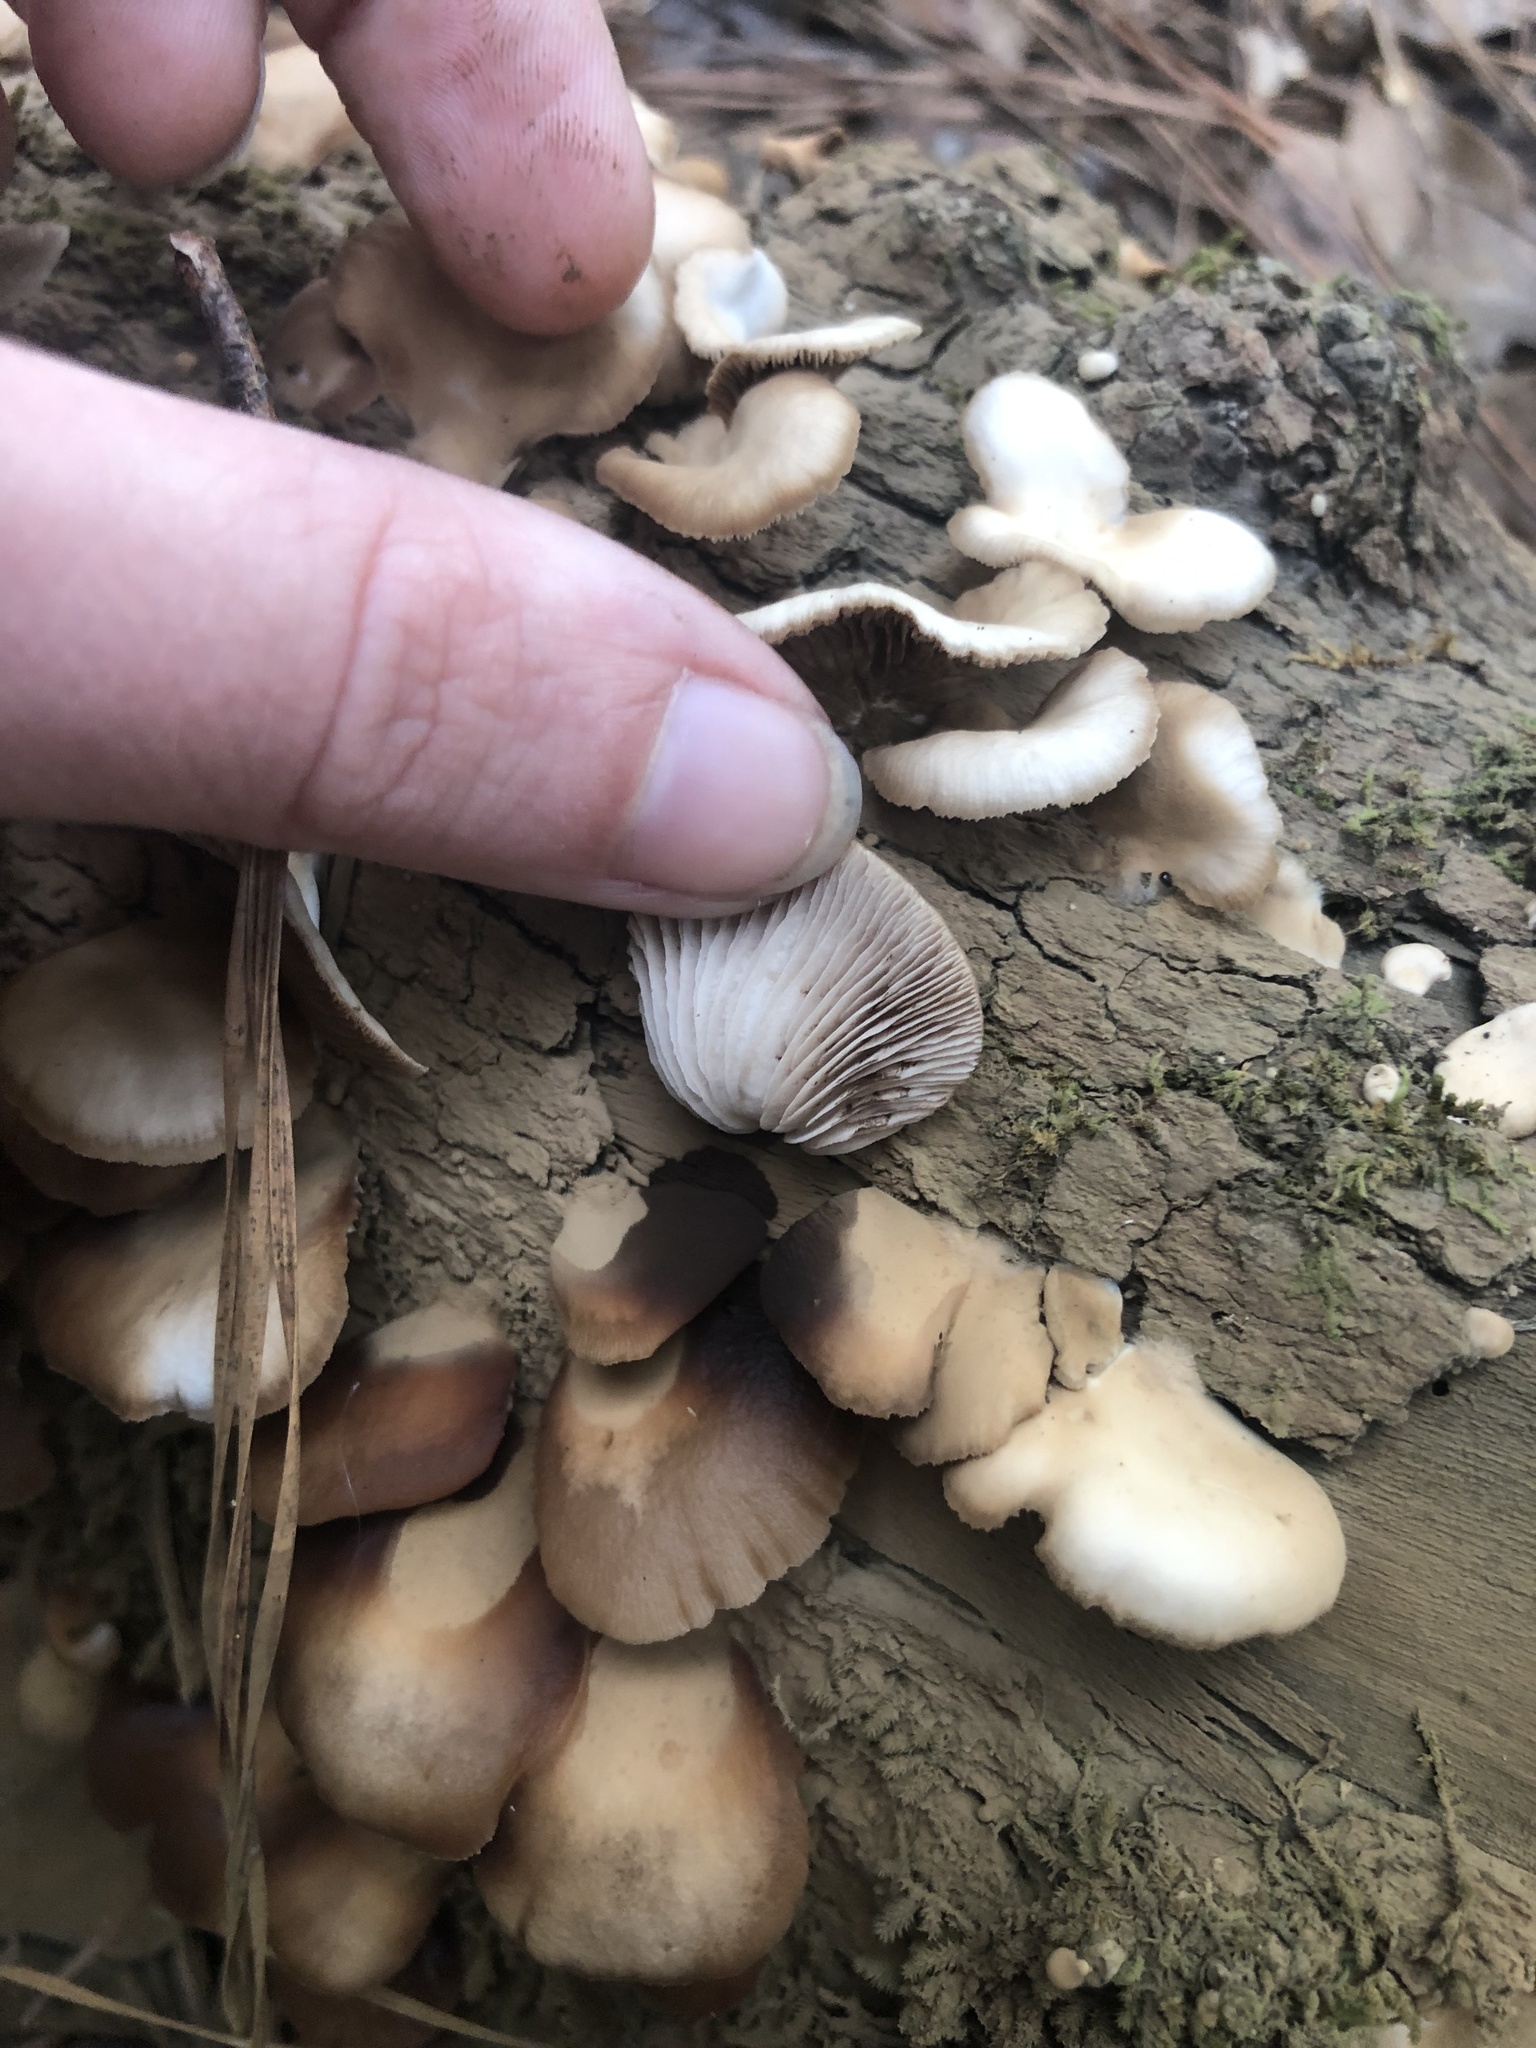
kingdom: Fungi
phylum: Basidiomycota
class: Agaricomycetes
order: Agaricales
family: Crepidotaceae
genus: Crepidotus
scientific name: Crepidotus applanatus
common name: Flat crep
